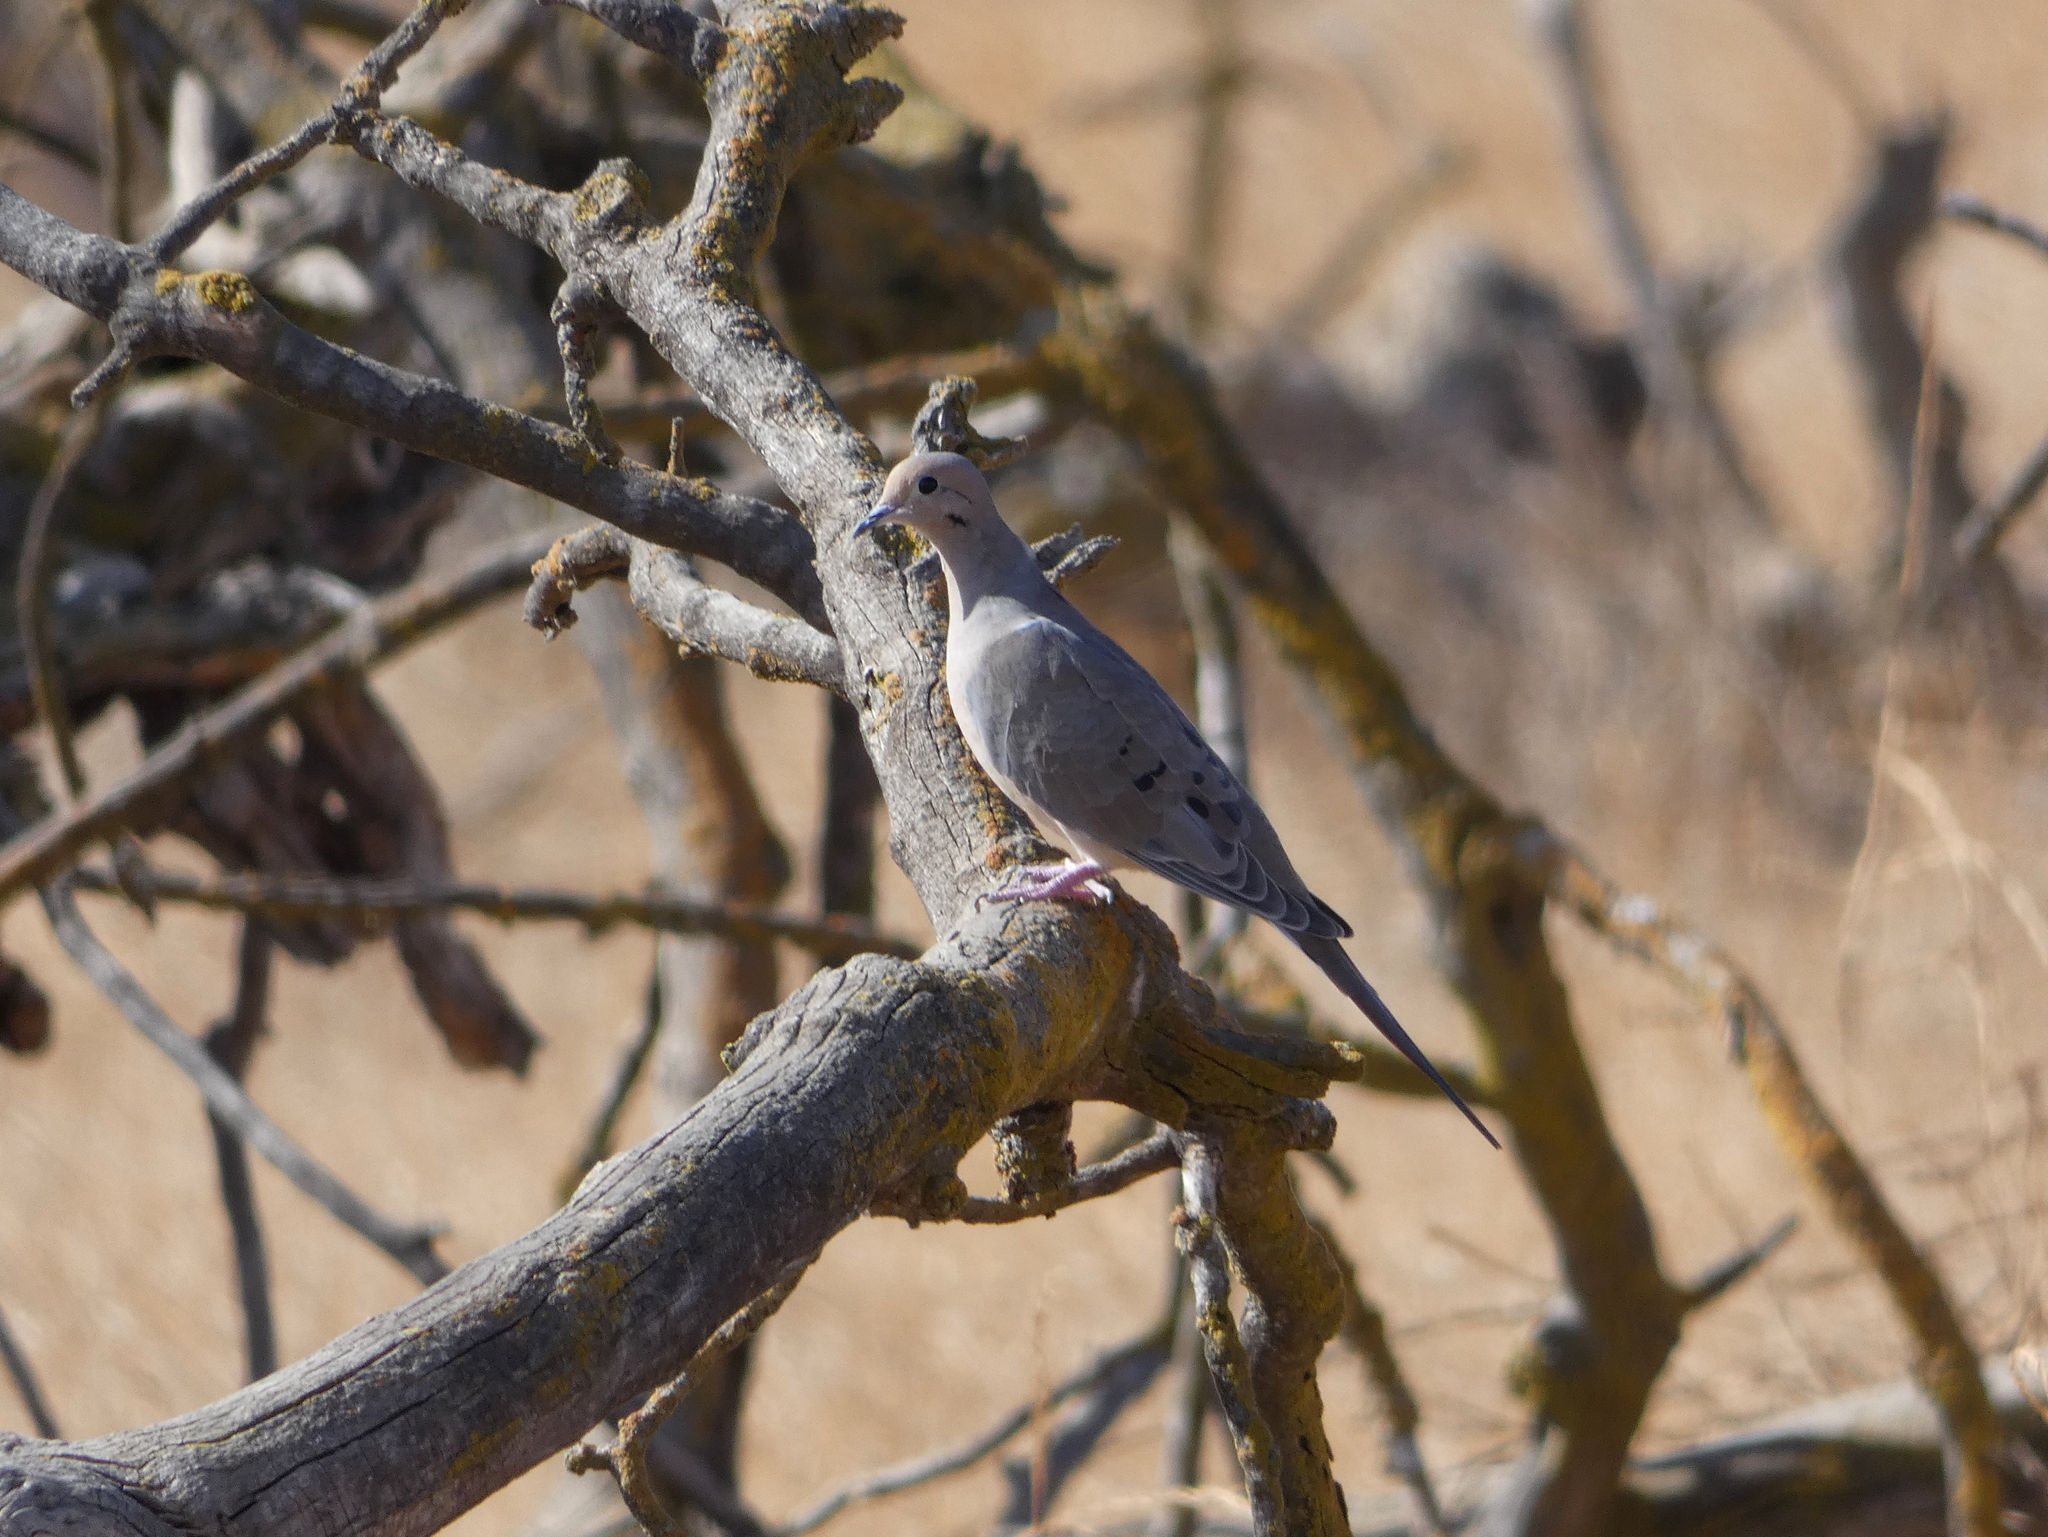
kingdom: Animalia
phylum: Chordata
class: Aves
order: Columbiformes
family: Columbidae
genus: Zenaida
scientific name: Zenaida macroura
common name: Mourning dove
